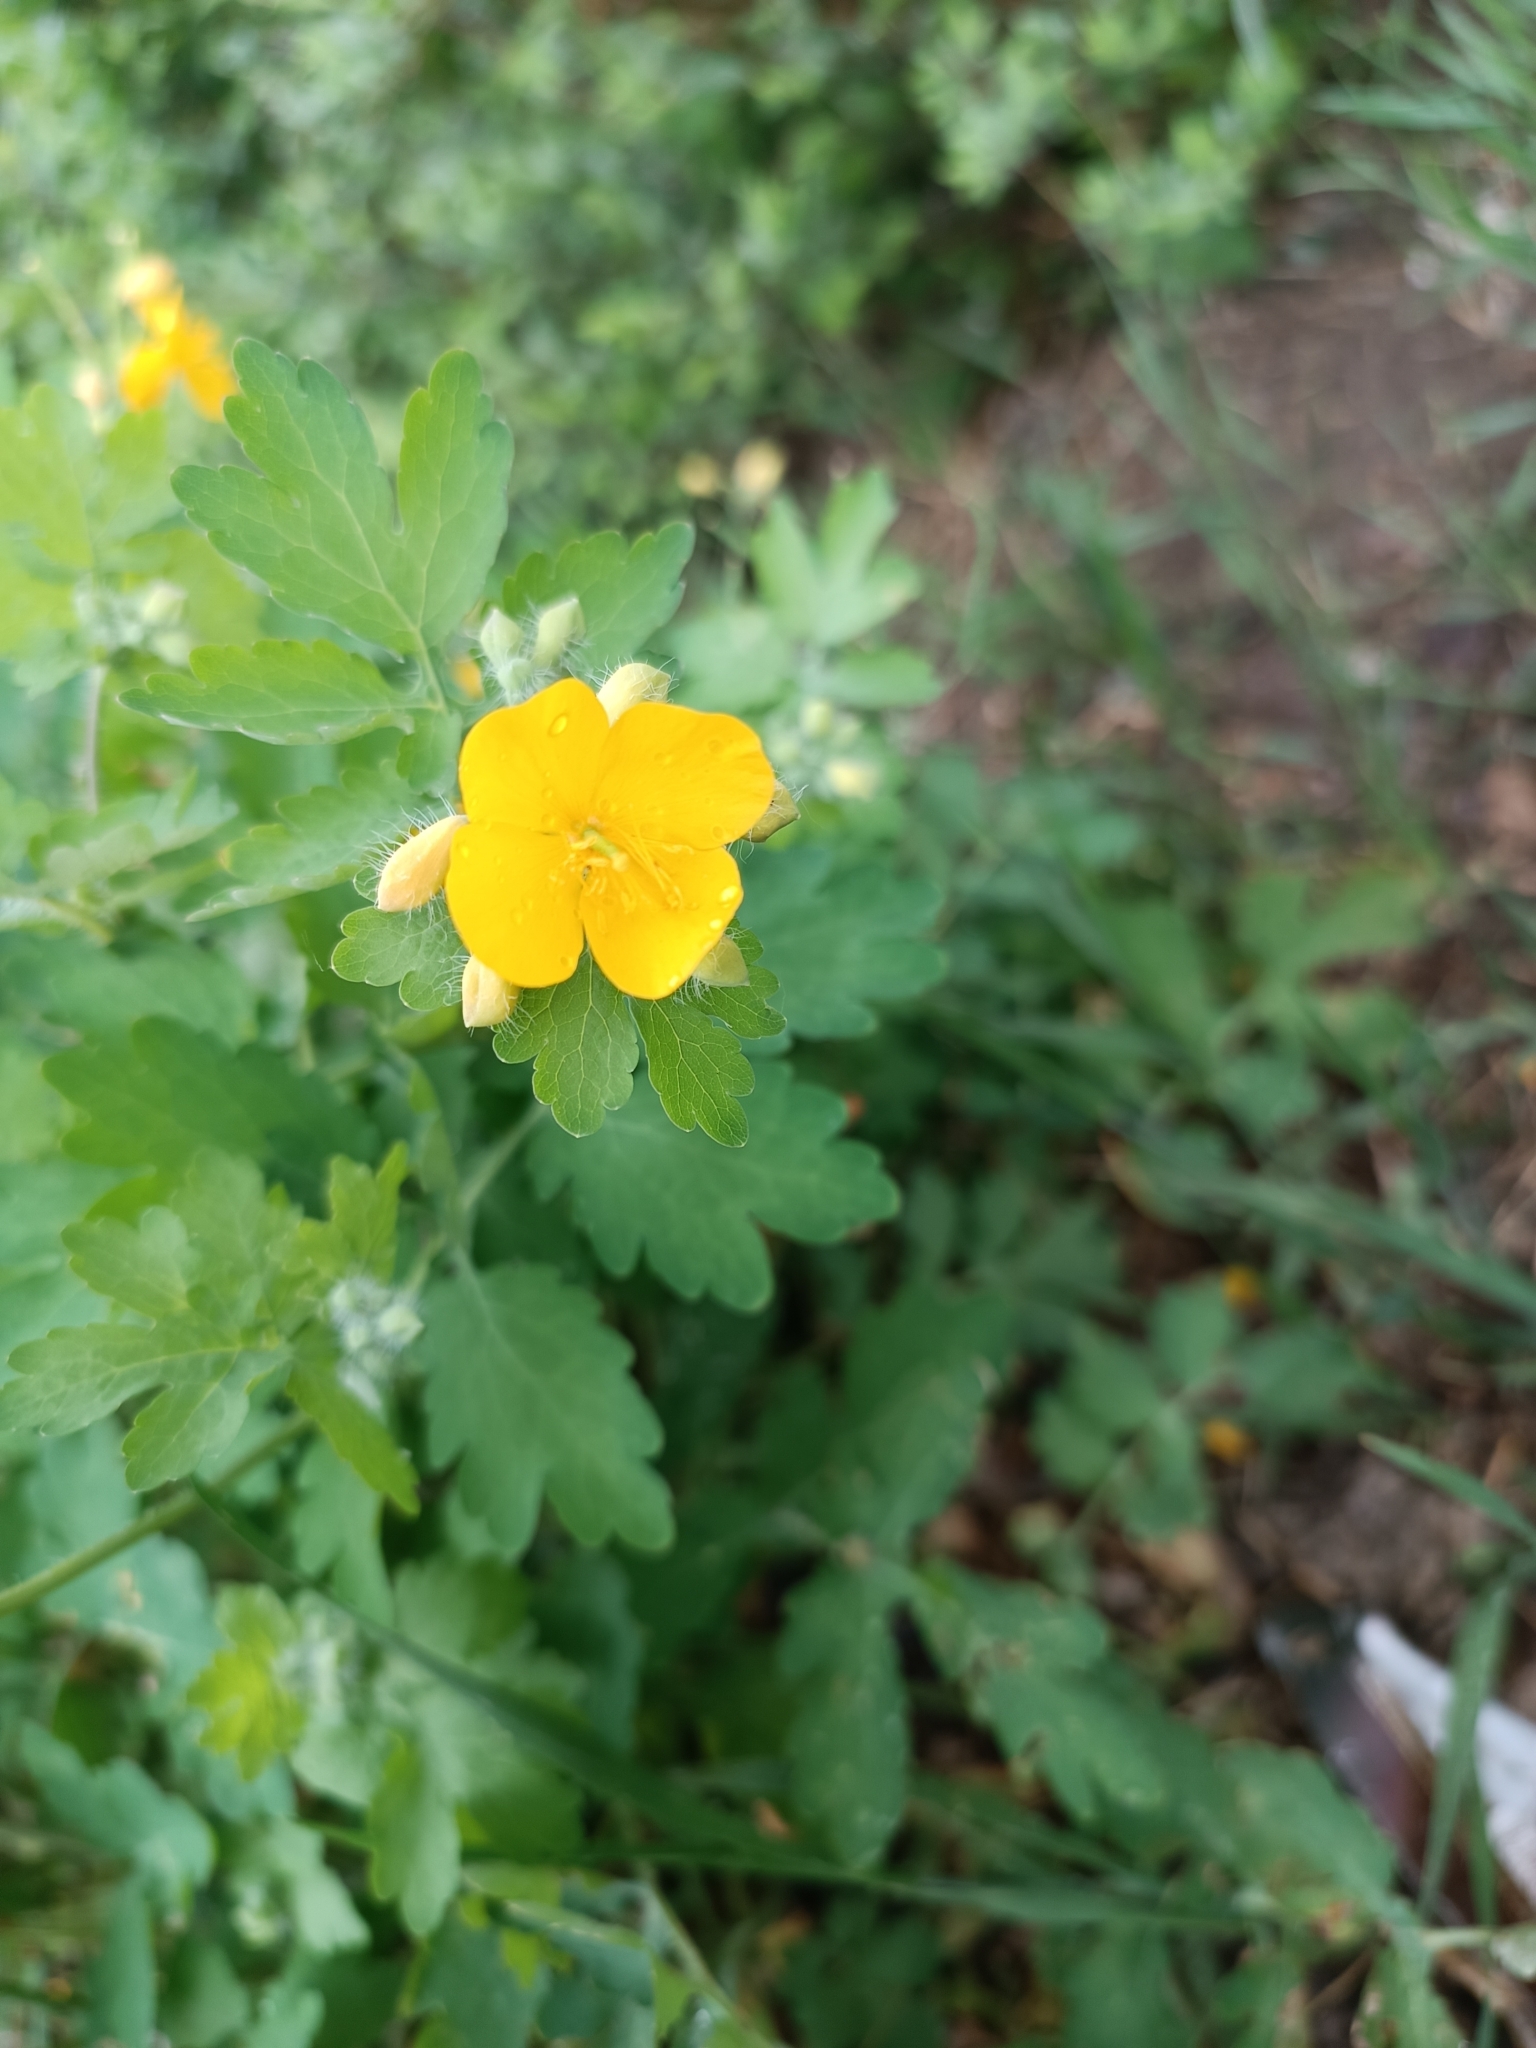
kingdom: Plantae
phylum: Tracheophyta
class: Magnoliopsida
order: Ranunculales
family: Papaveraceae
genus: Chelidonium
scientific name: Chelidonium majus
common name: Greater celandine
